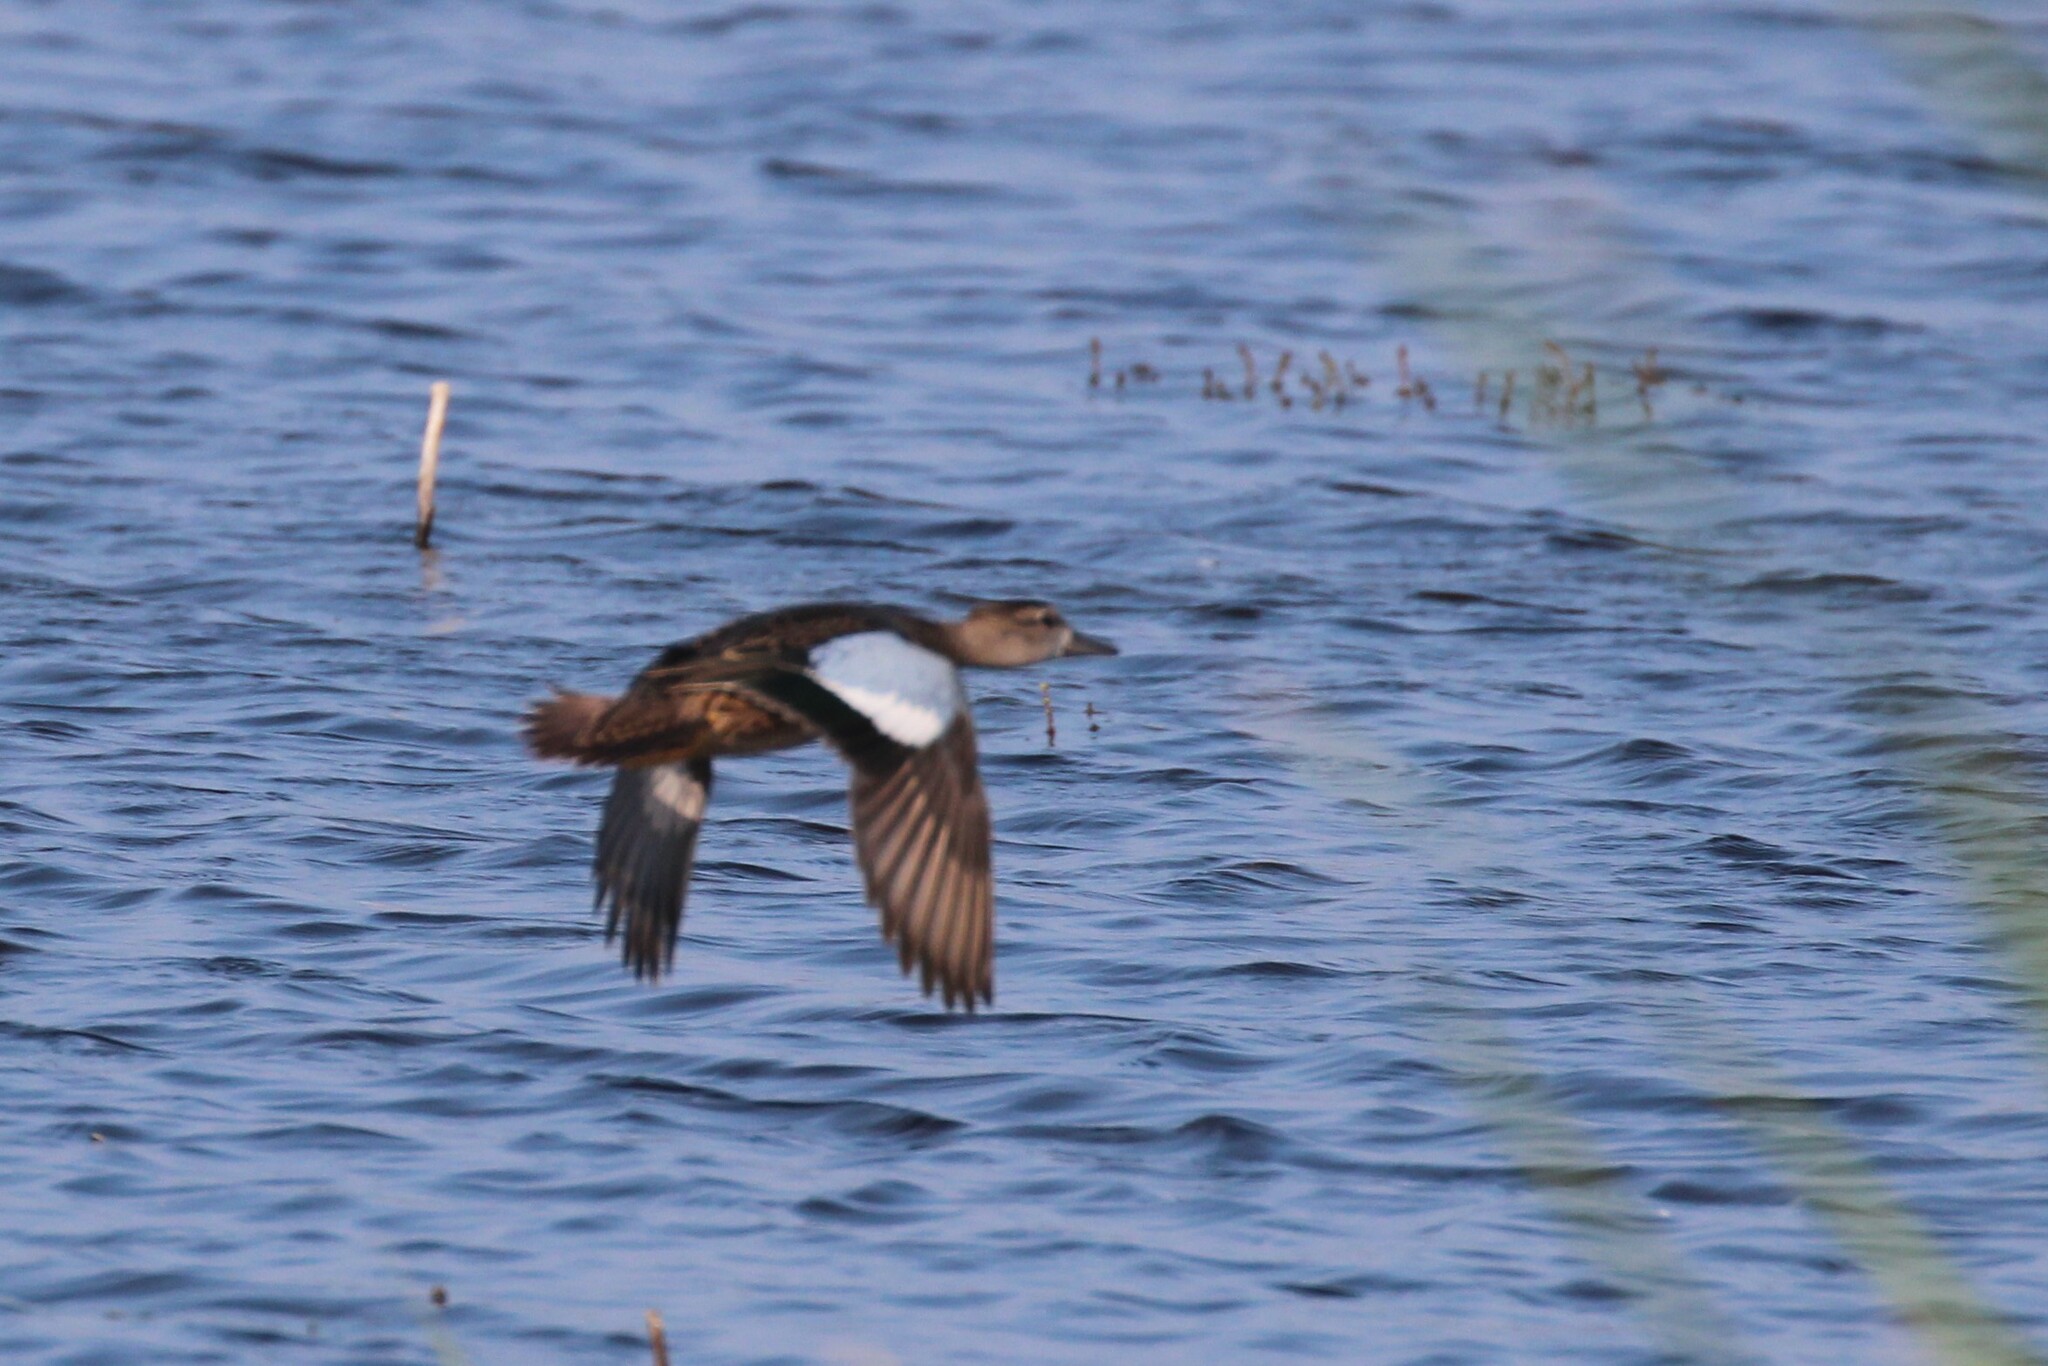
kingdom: Animalia
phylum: Chordata
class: Aves
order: Anseriformes
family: Anatidae
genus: Spatula
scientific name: Spatula discors
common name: Blue-winged teal
